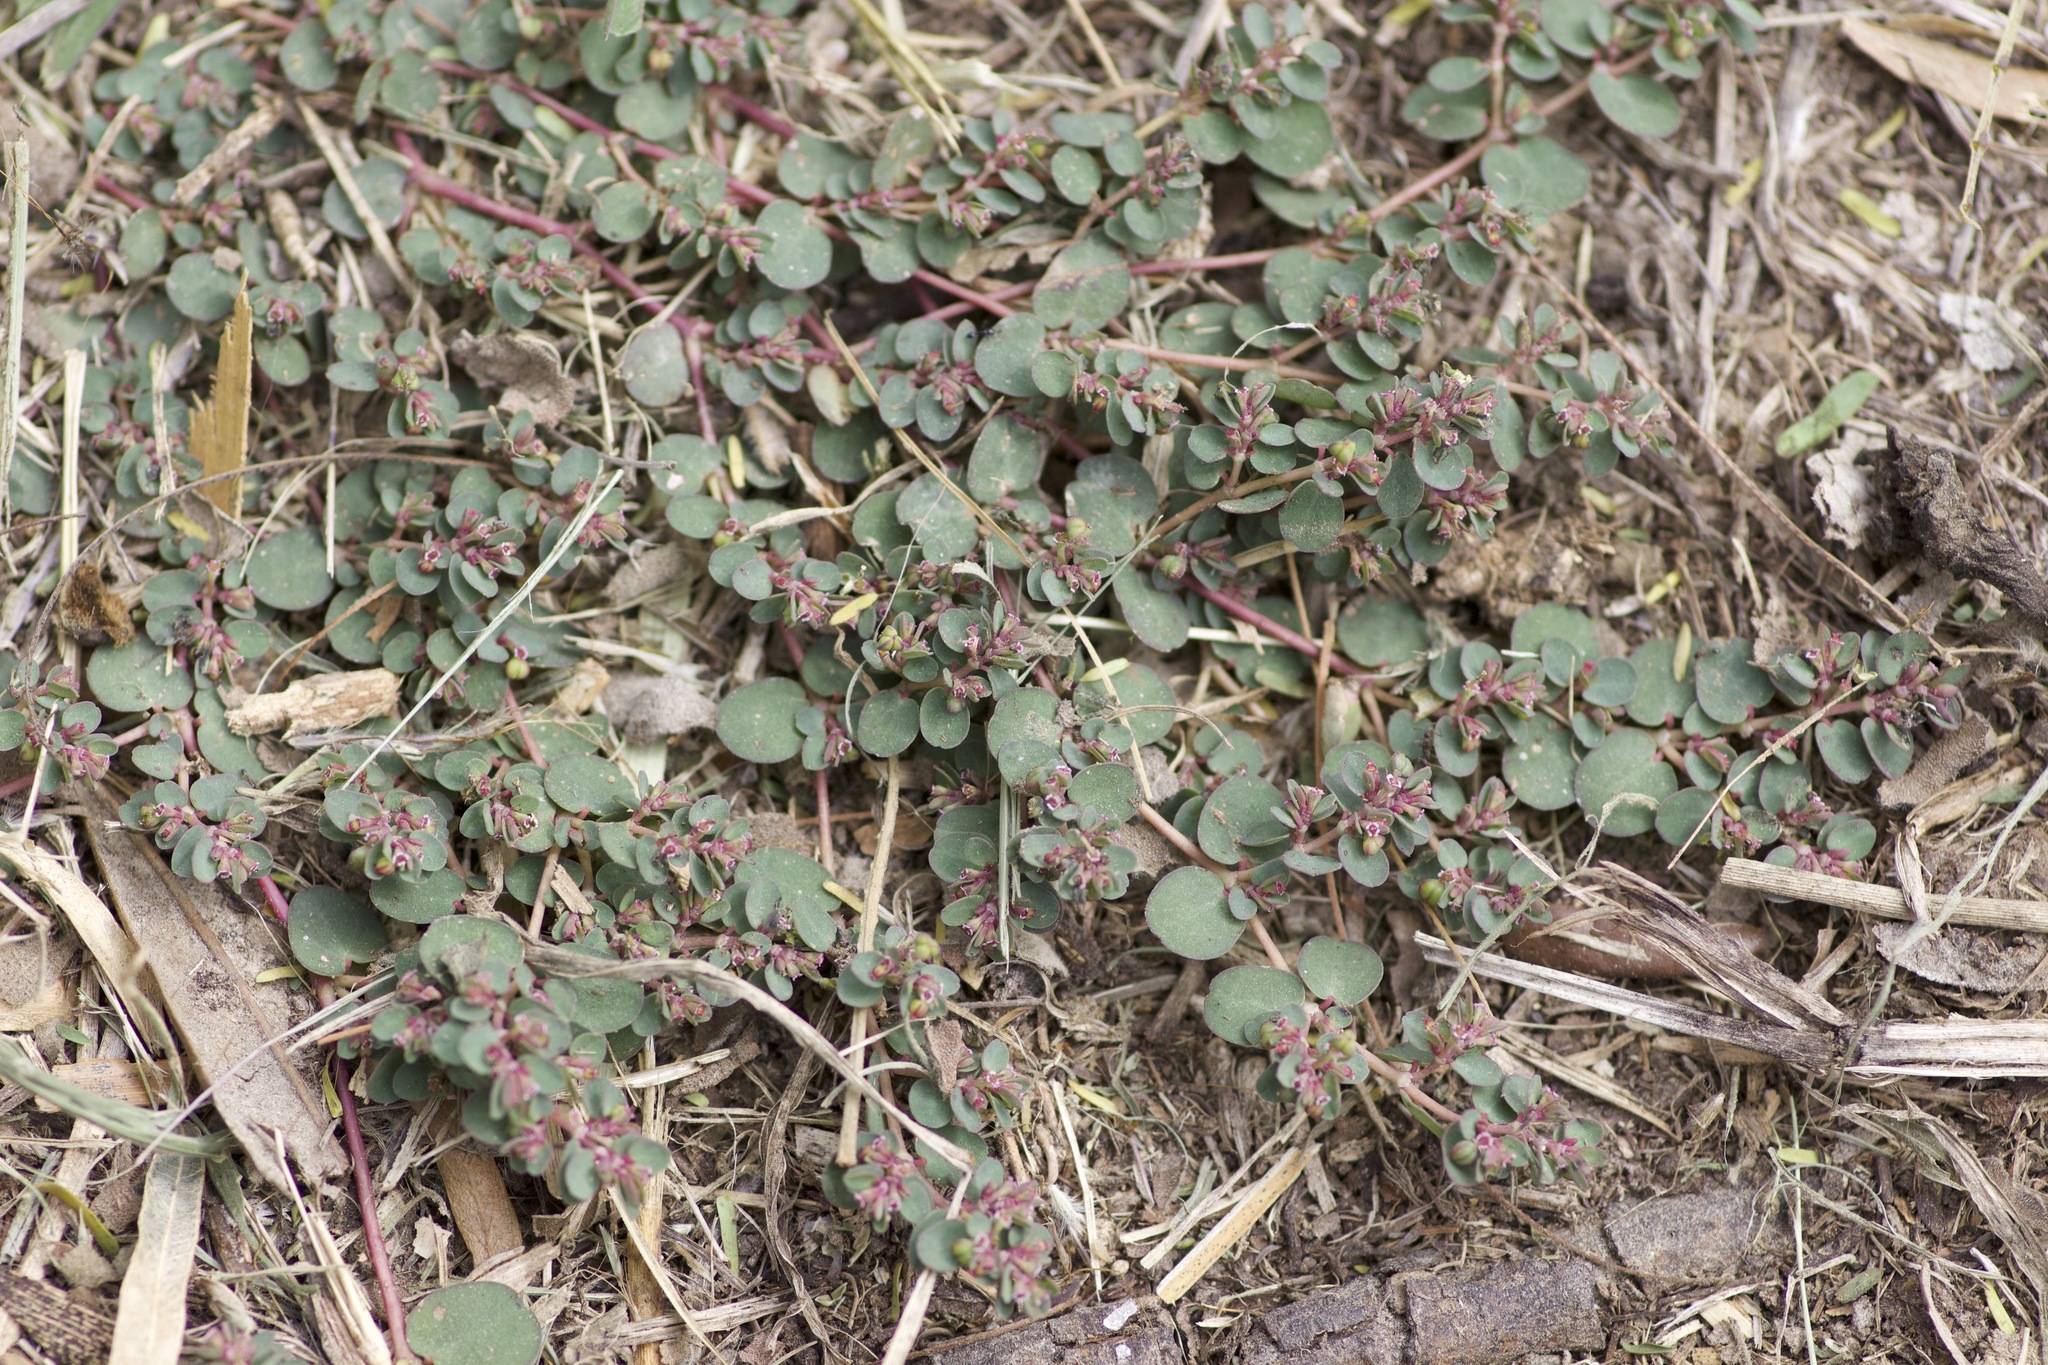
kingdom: Plantae
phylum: Tracheophyta
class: Magnoliopsida
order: Malpighiales
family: Euphorbiaceae
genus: Euphorbia
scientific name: Euphorbia serpens
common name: Matted sandmat
